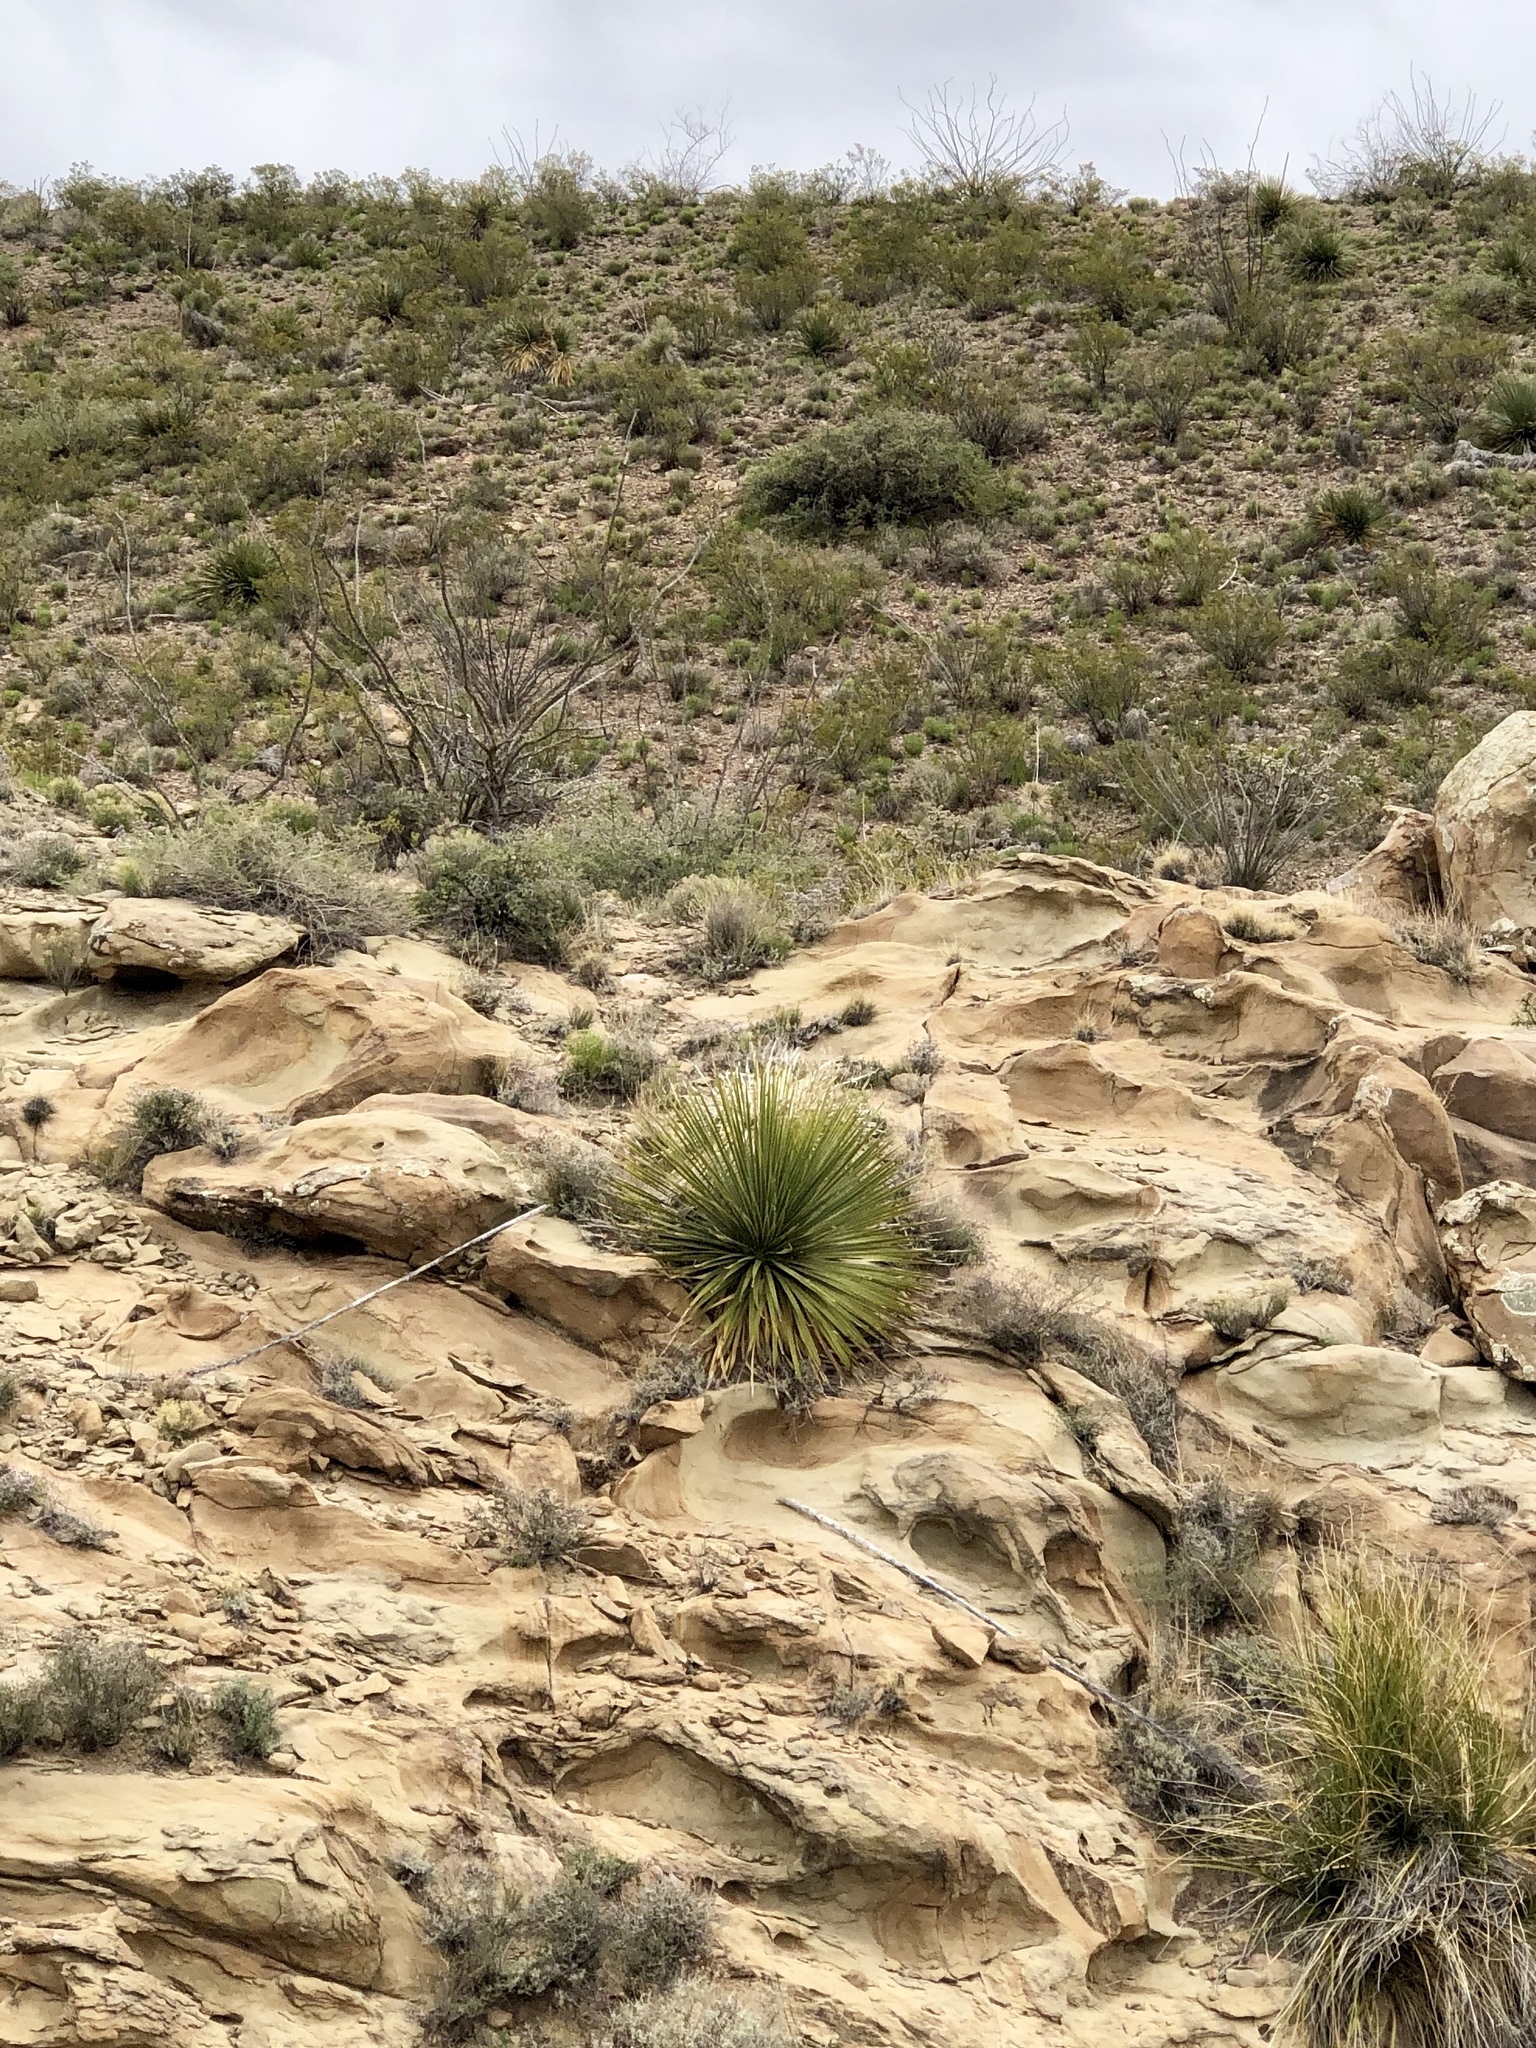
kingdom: Plantae
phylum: Tracheophyta
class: Liliopsida
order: Asparagales
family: Asparagaceae
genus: Dasylirion
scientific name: Dasylirion wheeleri
